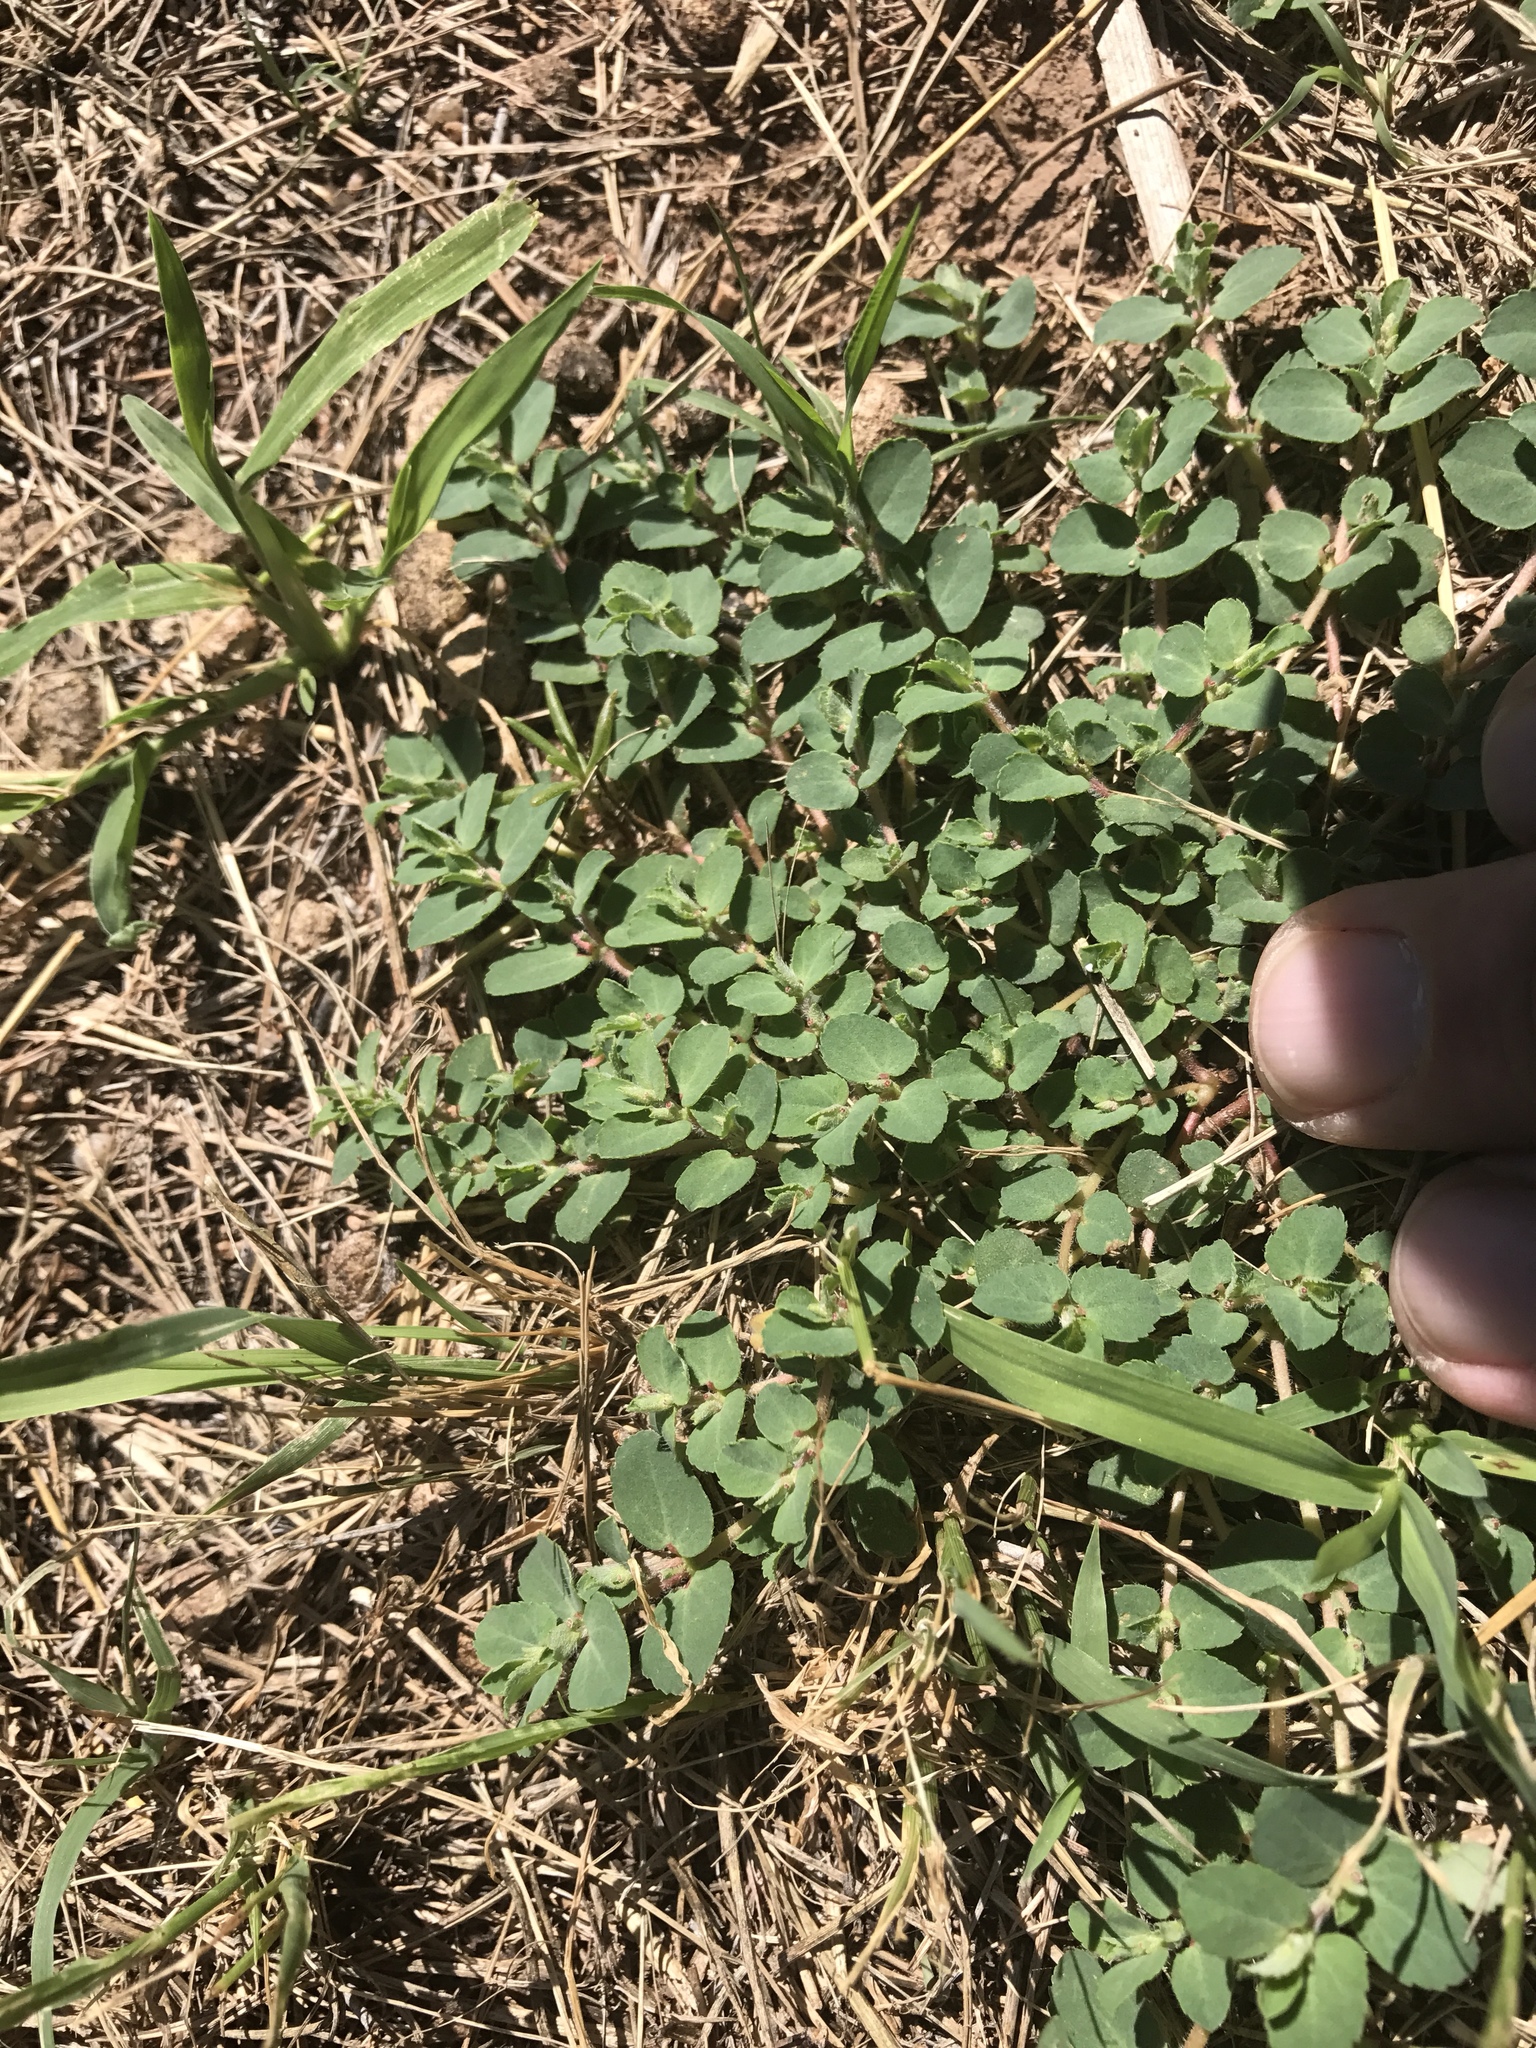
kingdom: Plantae
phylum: Tracheophyta
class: Magnoliopsida
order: Malpighiales
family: Euphorbiaceae
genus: Euphorbia
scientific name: Euphorbia stictospora
